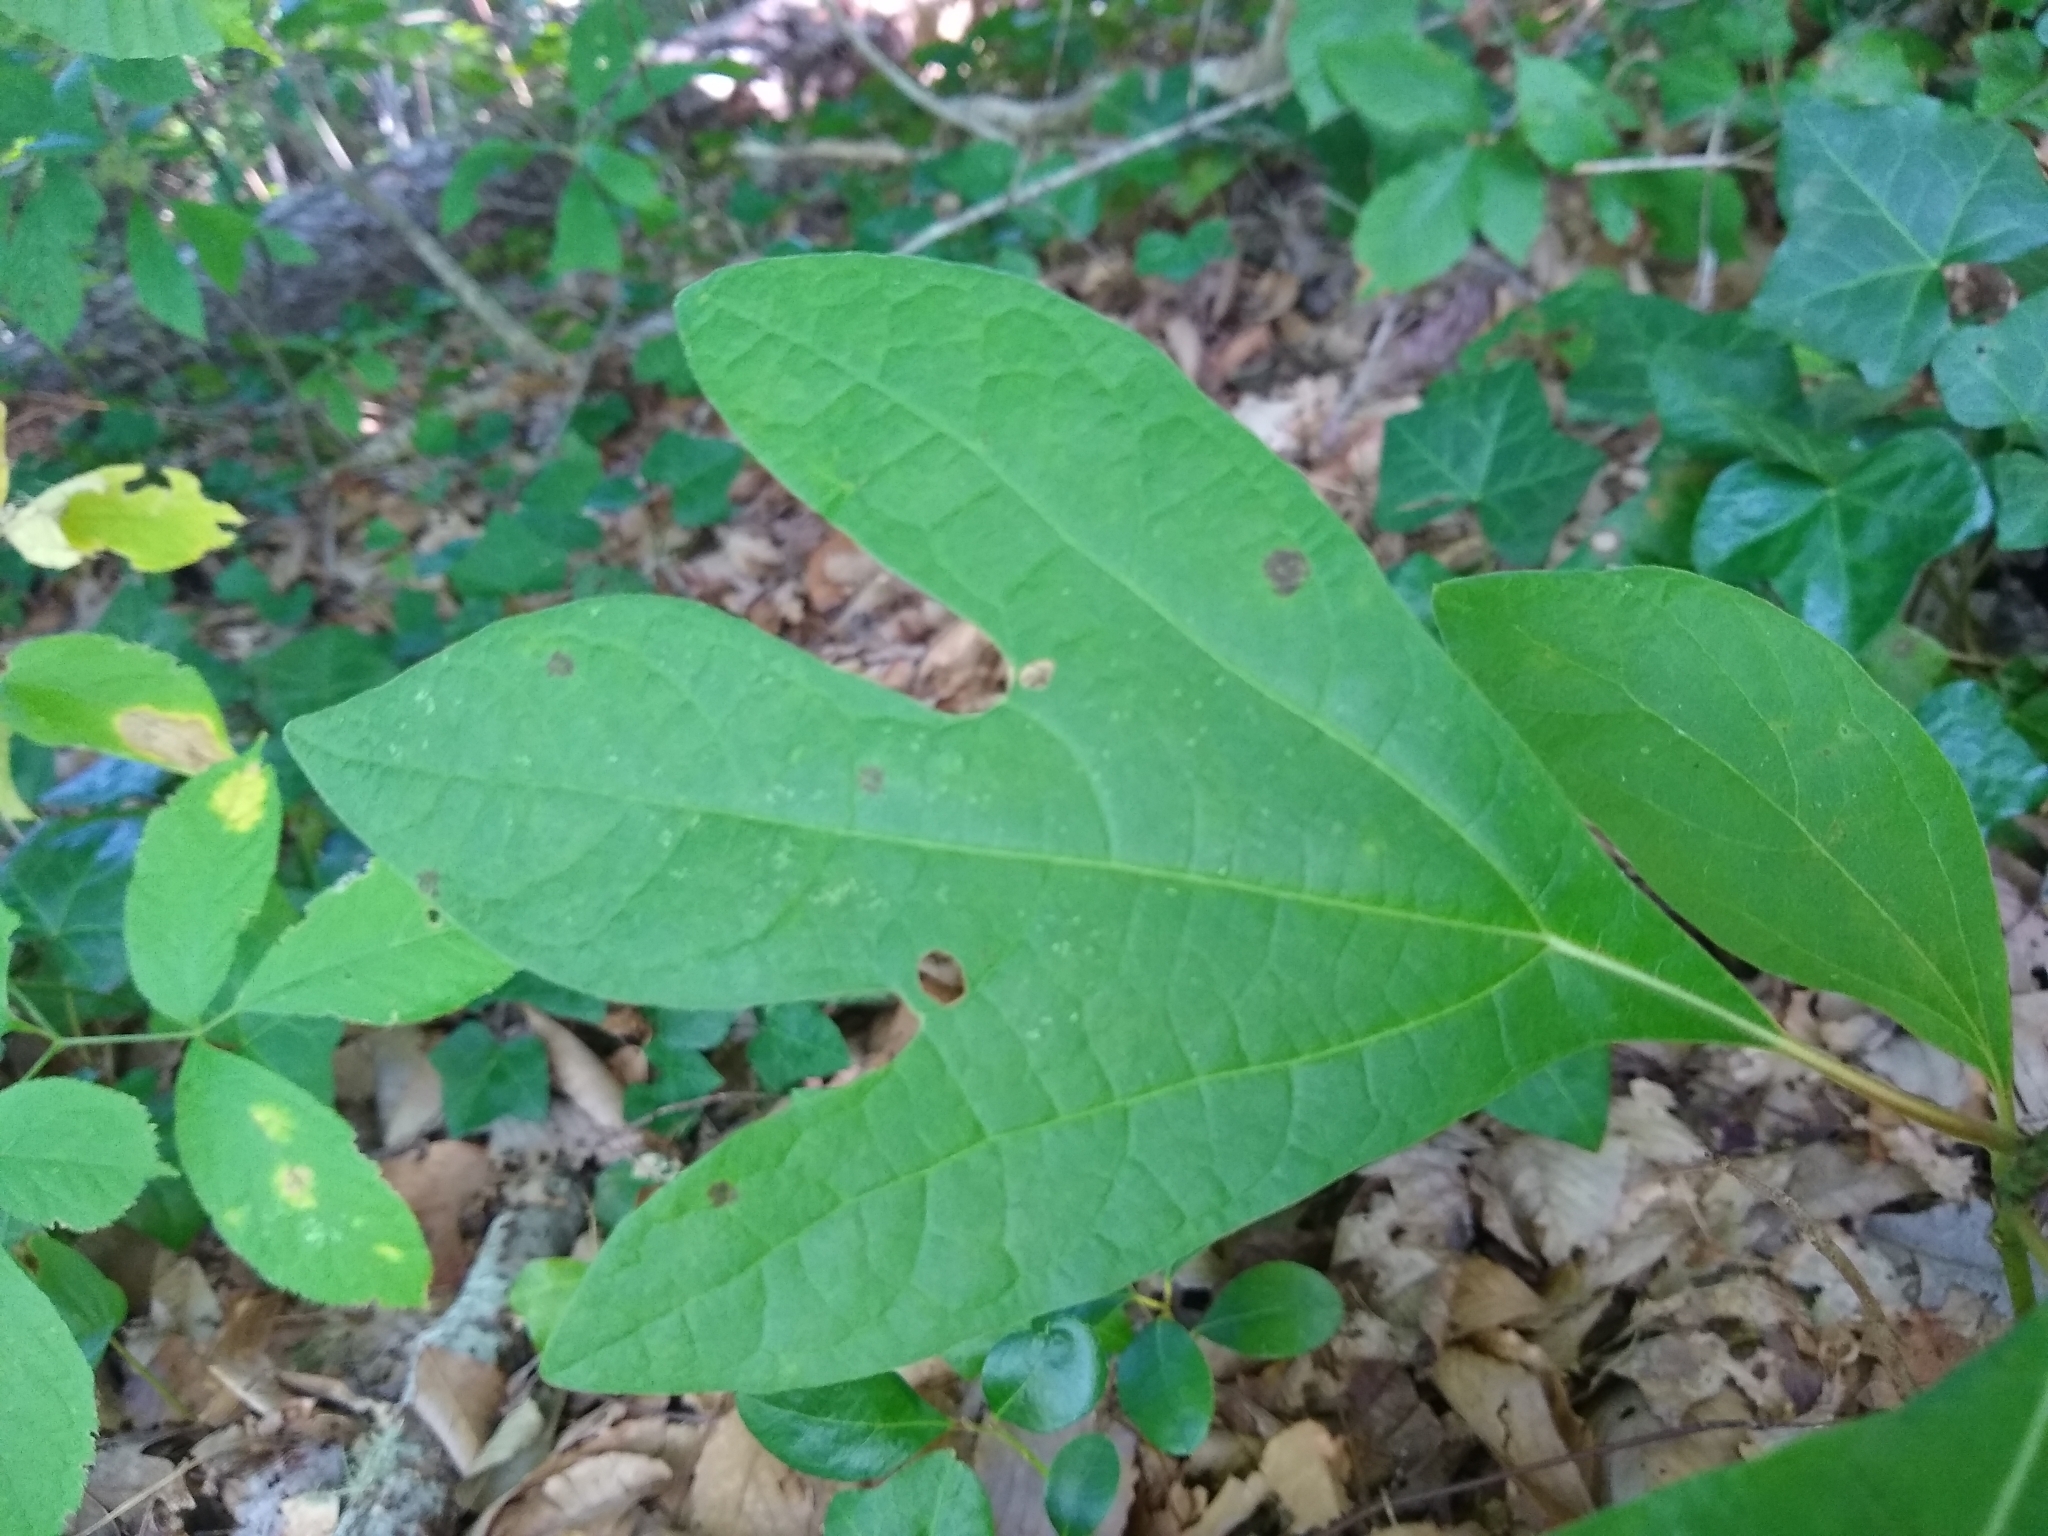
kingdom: Plantae
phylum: Tracheophyta
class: Magnoliopsida
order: Laurales
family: Lauraceae
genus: Sassafras
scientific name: Sassafras albidum
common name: Sassafras
